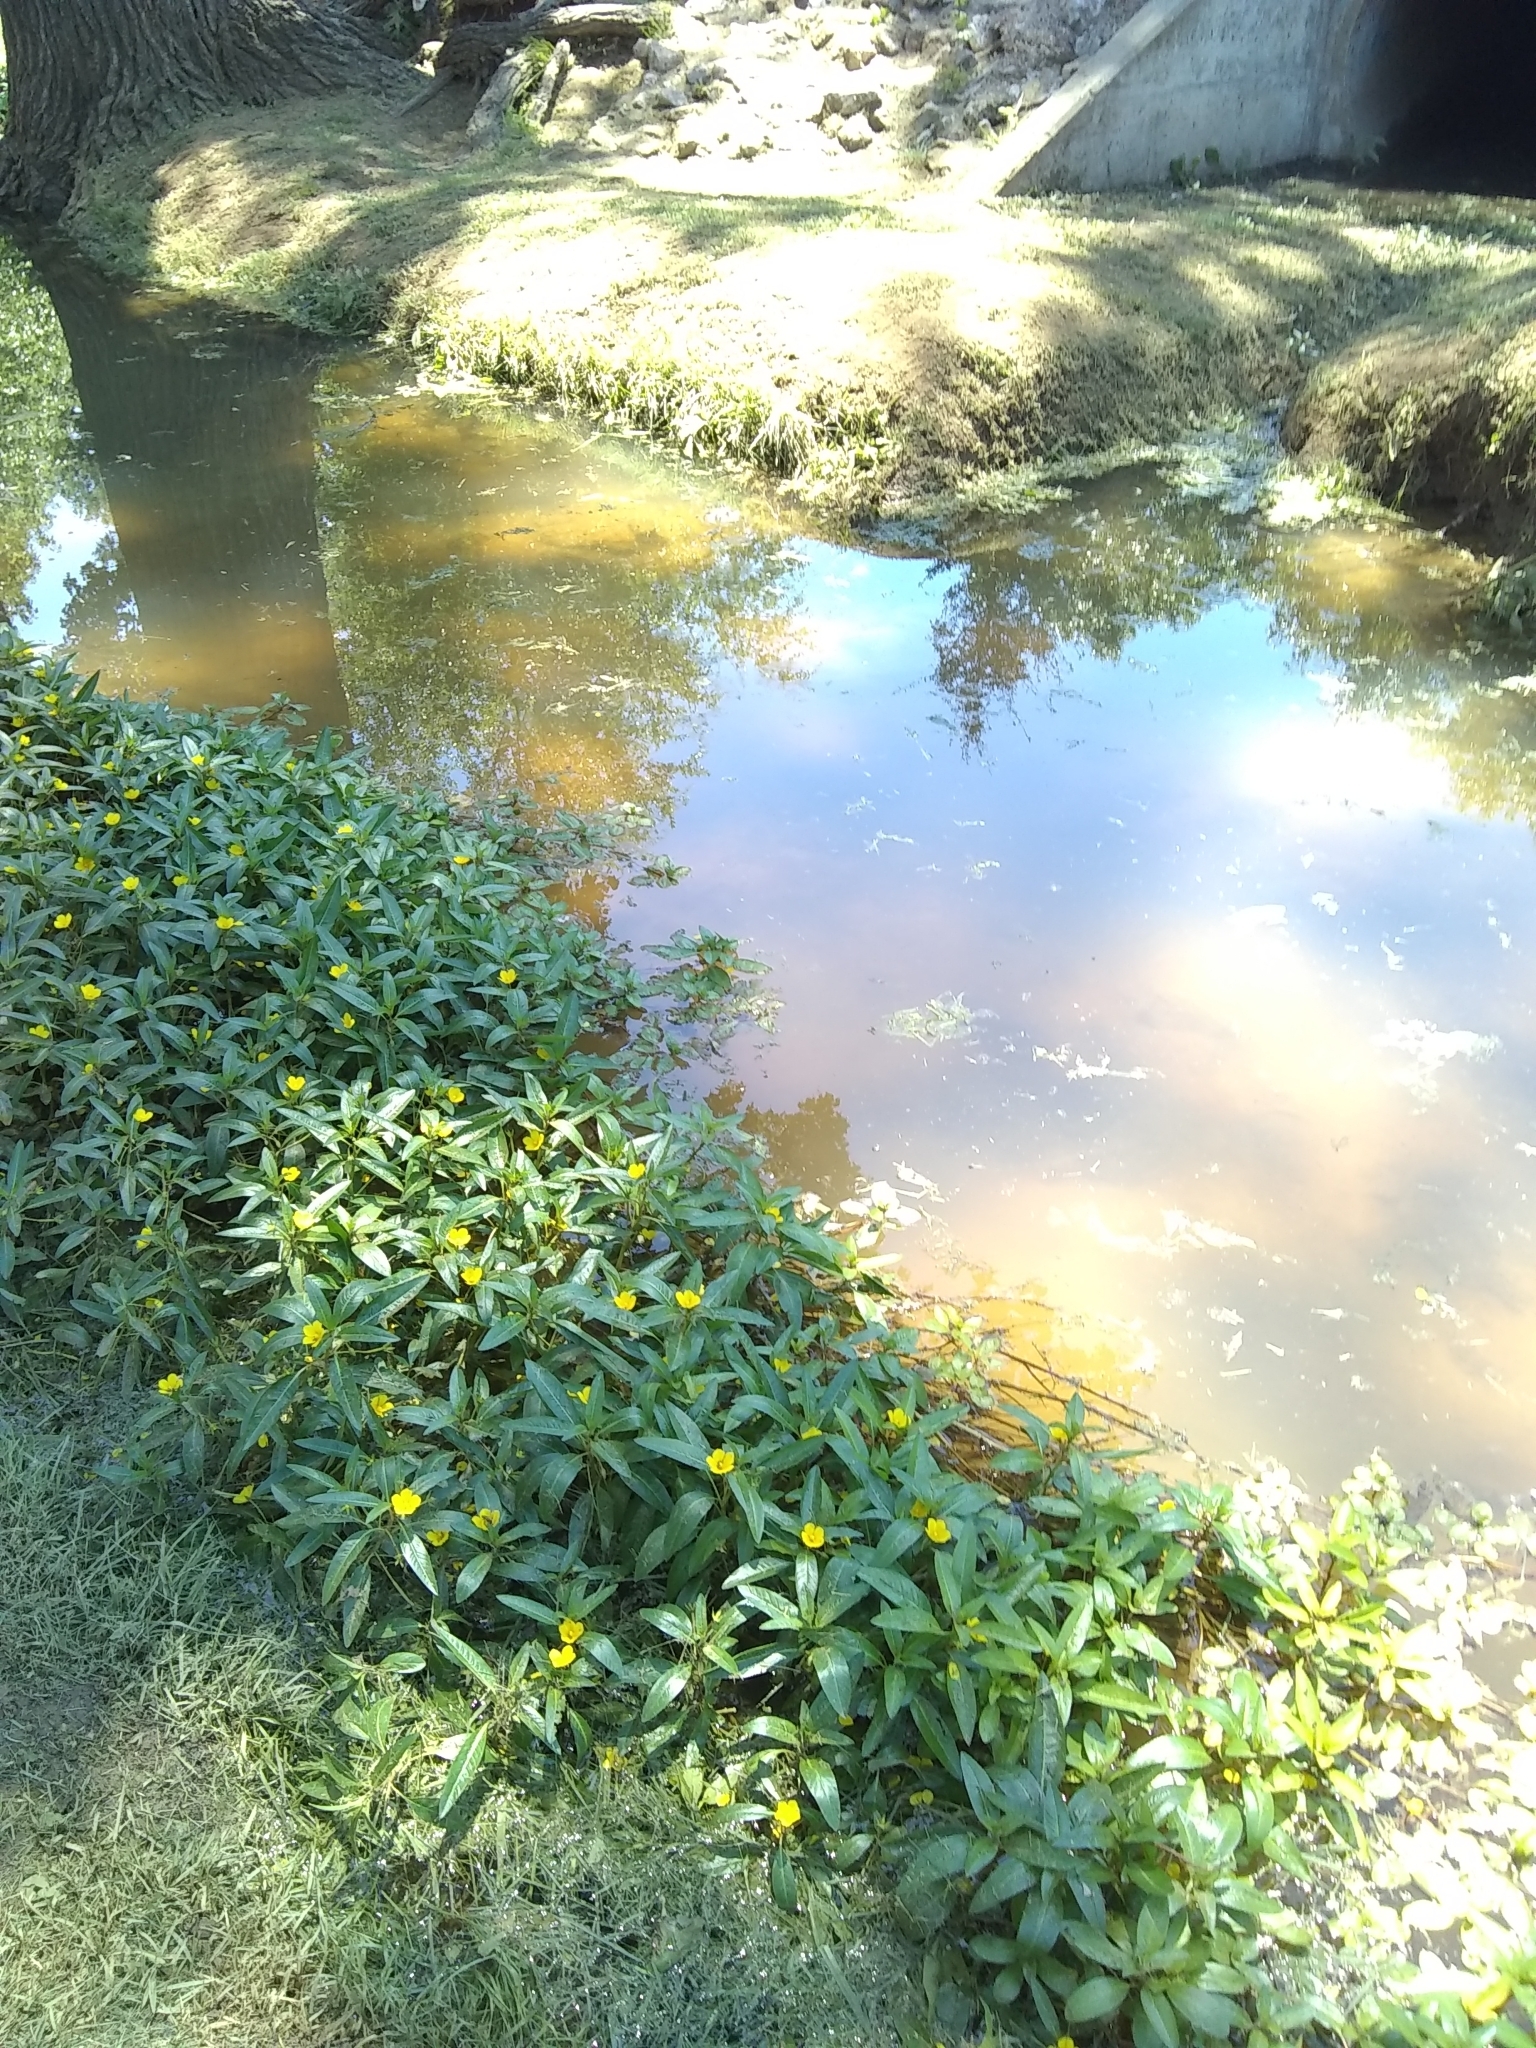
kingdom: Plantae
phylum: Tracheophyta
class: Magnoliopsida
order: Myrtales
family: Onagraceae
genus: Ludwigia
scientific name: Ludwigia peploides
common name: Floating primrose-willow
